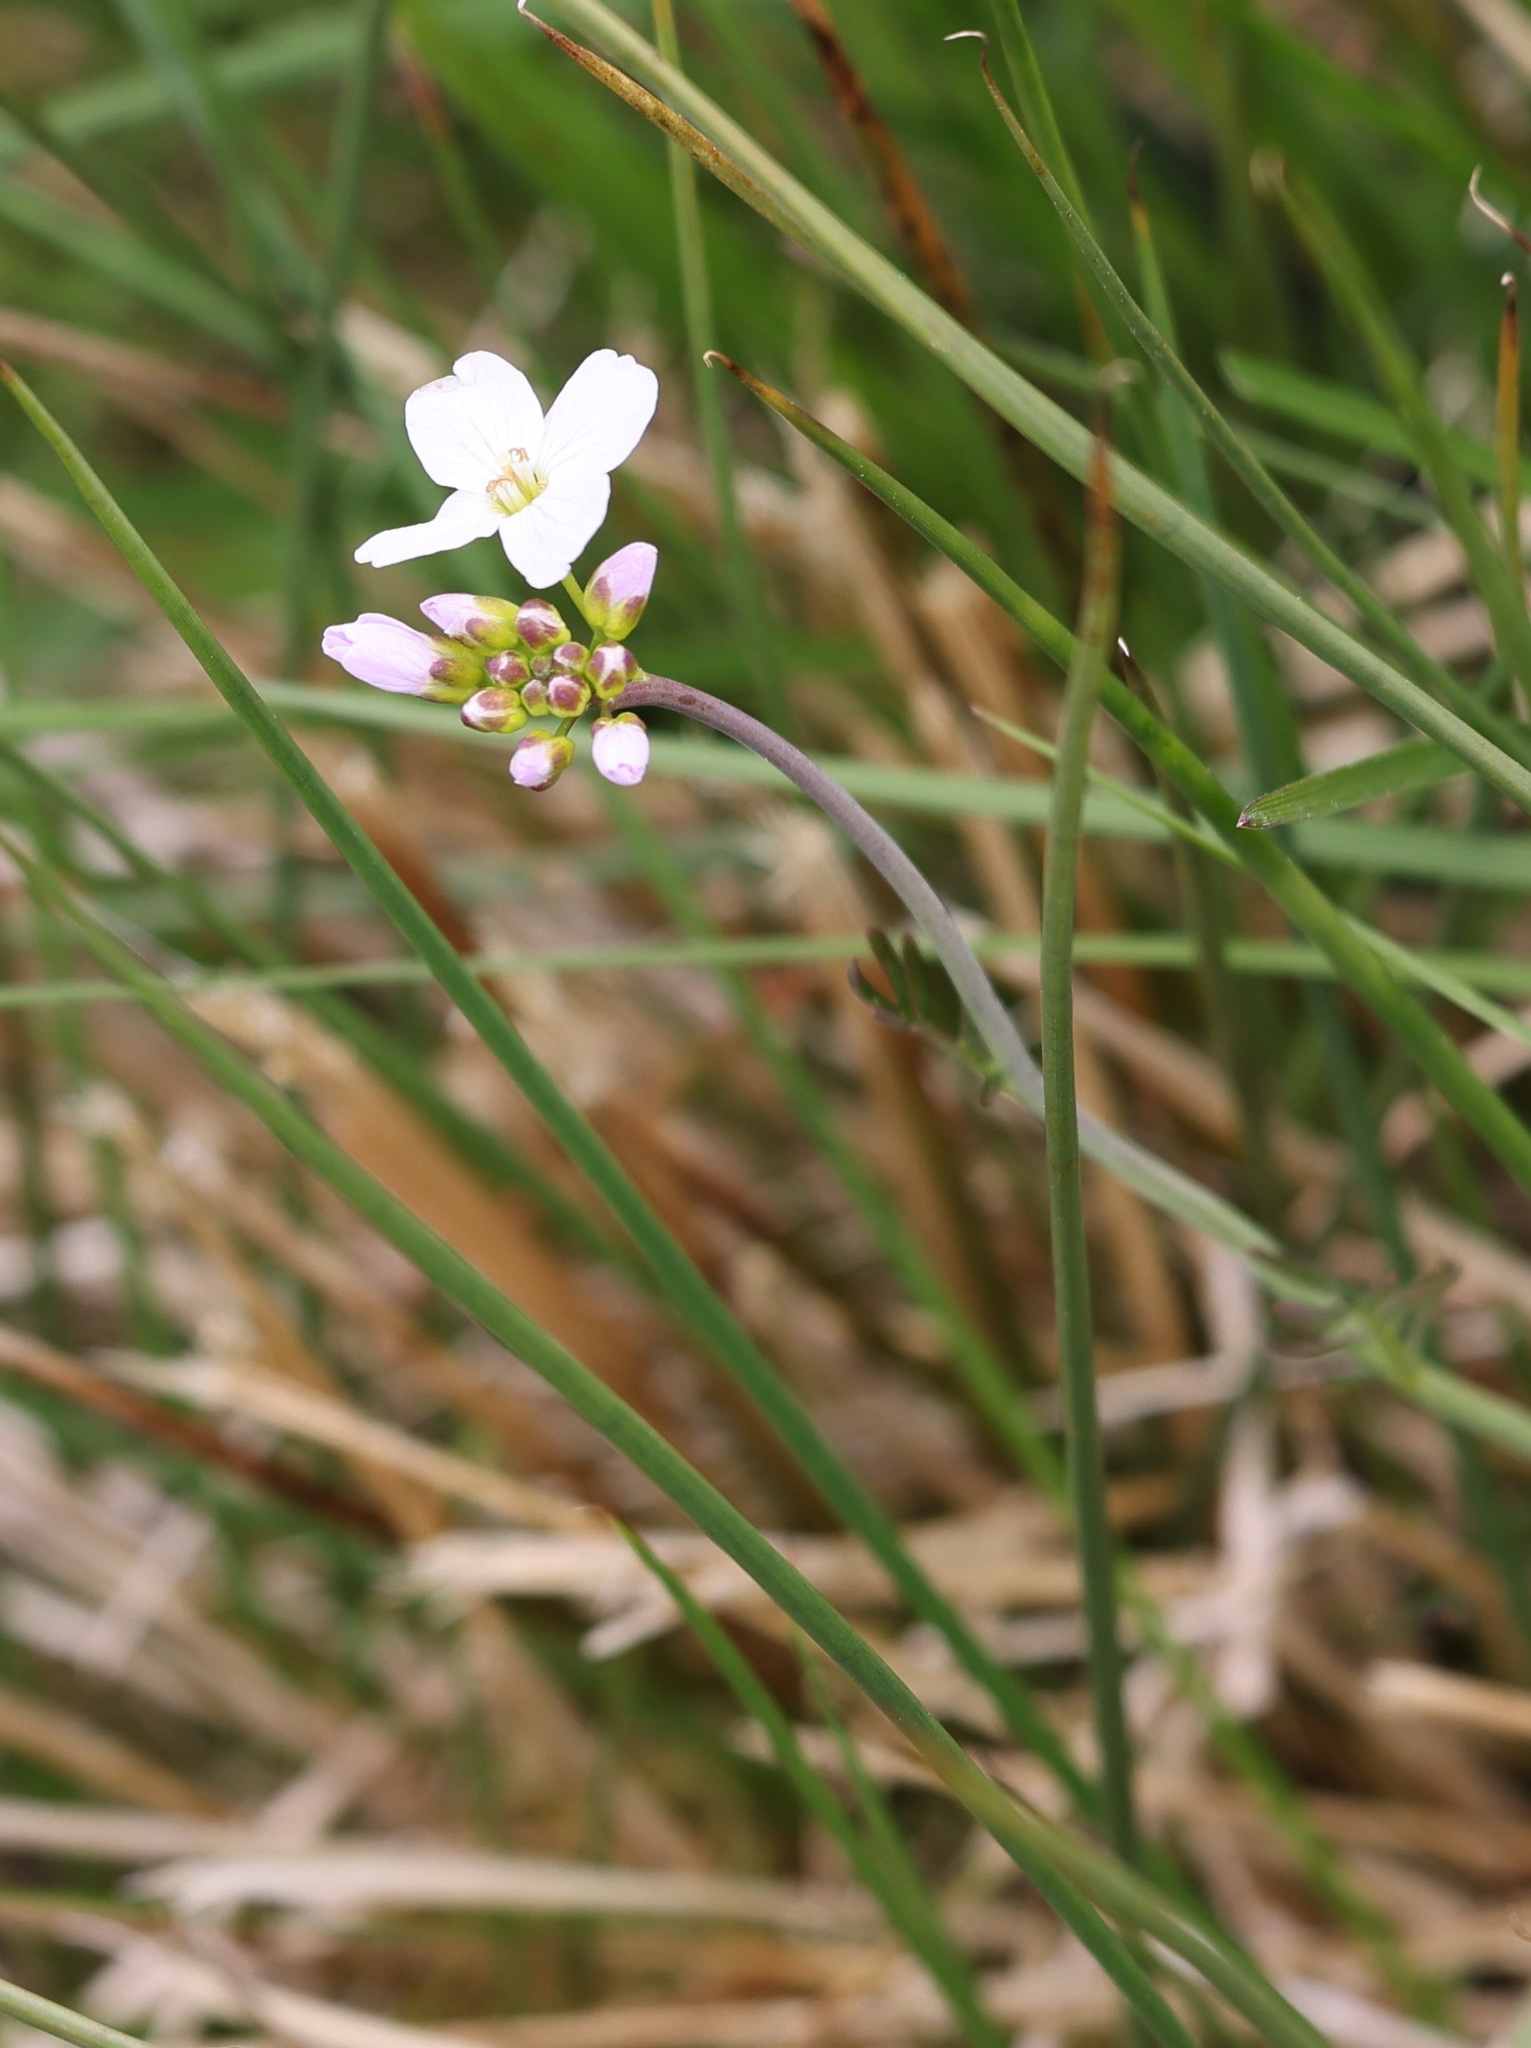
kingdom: Plantae
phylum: Tracheophyta
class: Magnoliopsida
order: Brassicales
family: Brassicaceae
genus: Cardamine
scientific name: Cardamine pratensis
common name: Cuckoo flower
